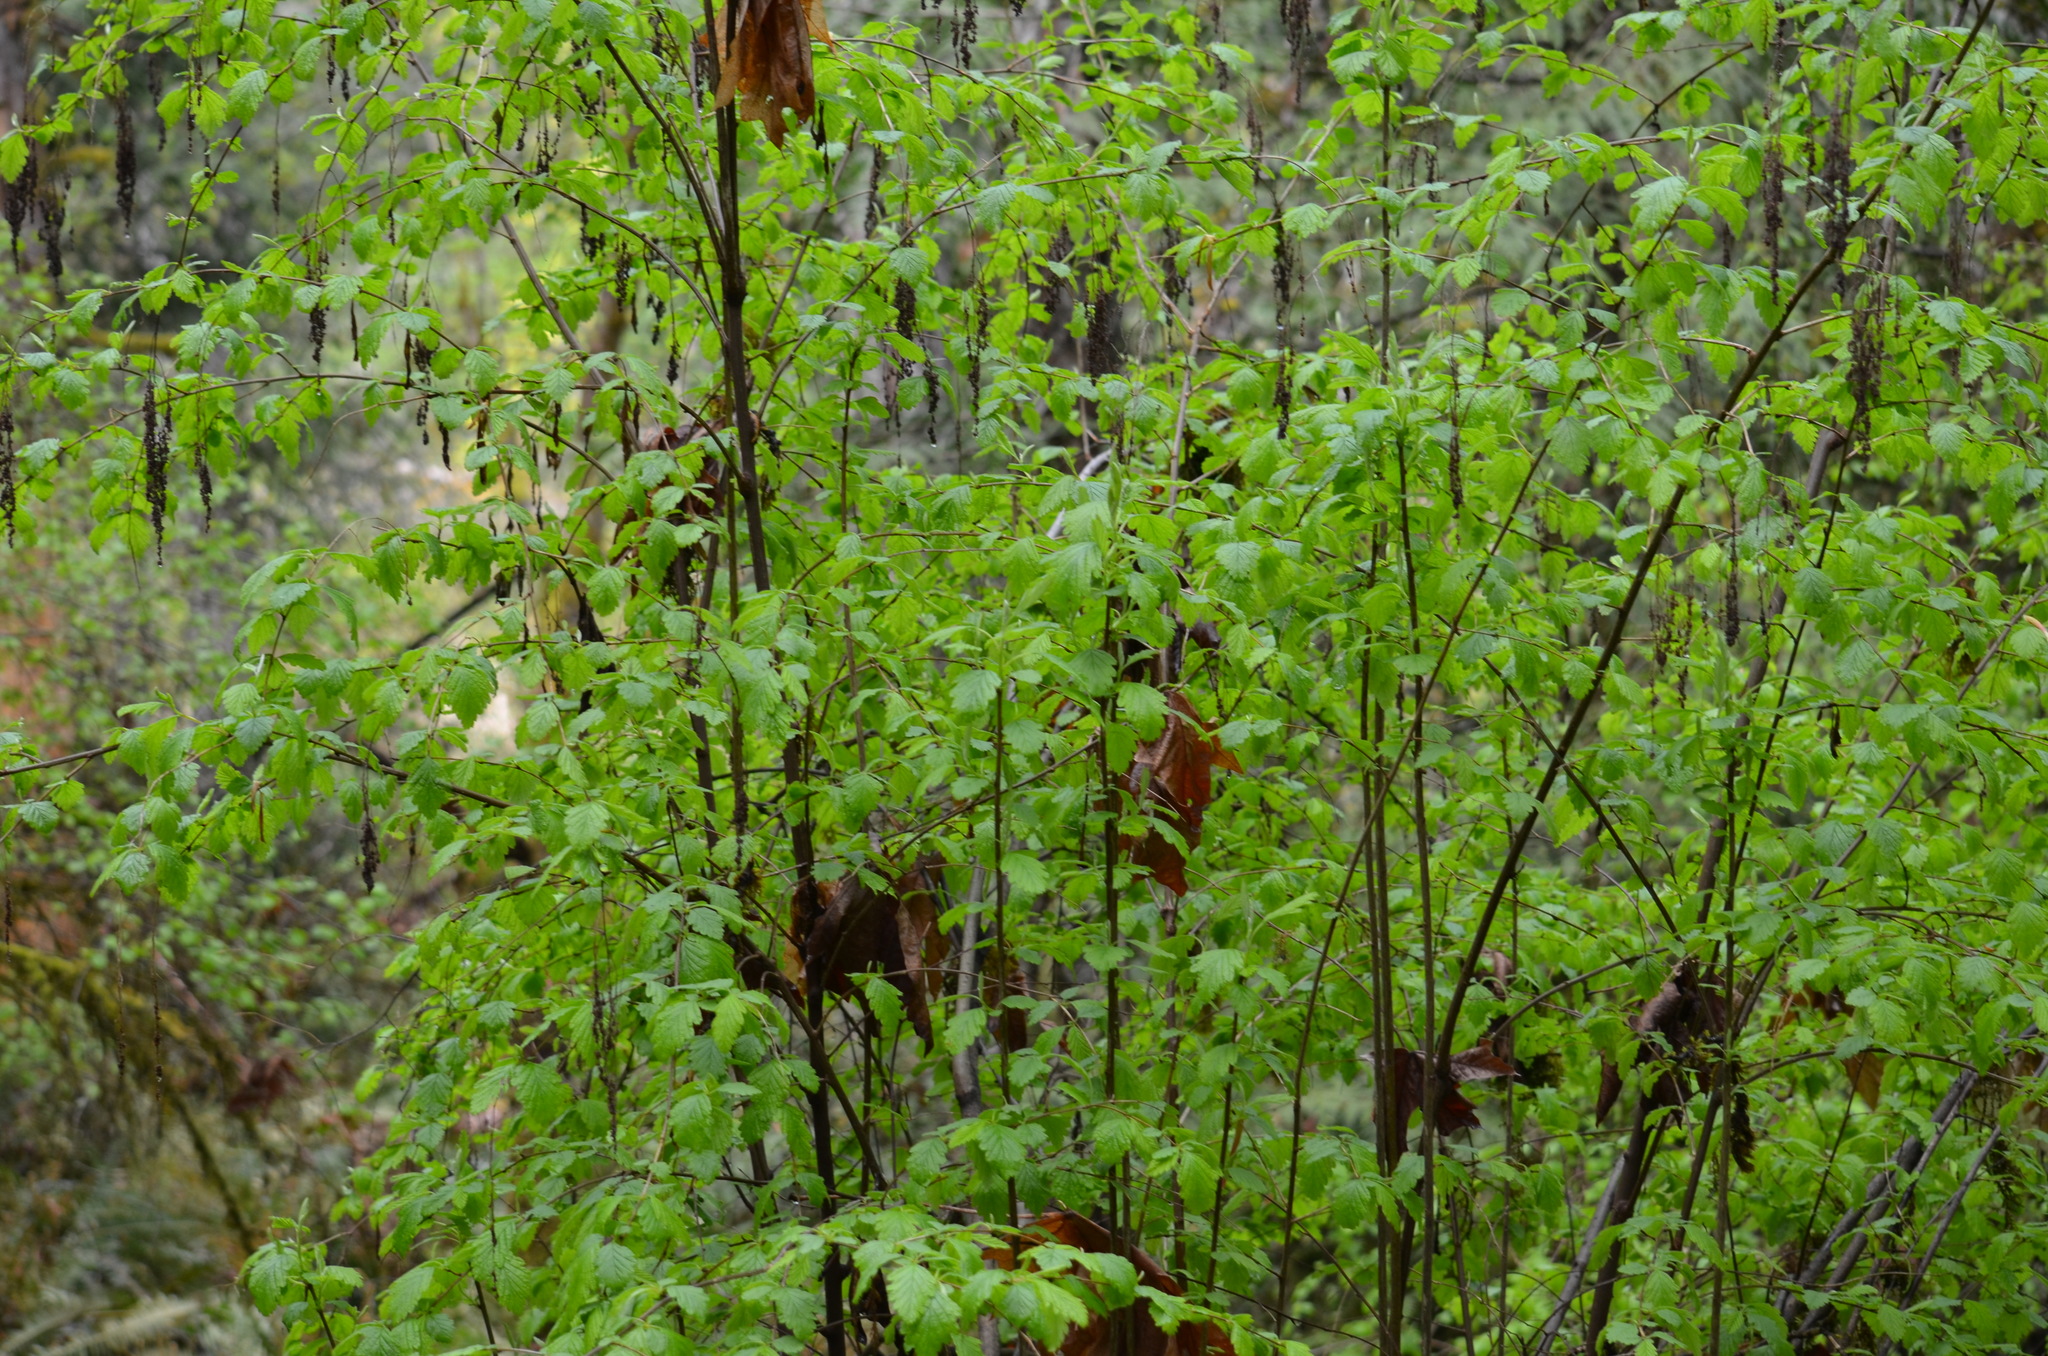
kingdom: Plantae
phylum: Tracheophyta
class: Magnoliopsida
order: Rosales
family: Rosaceae
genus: Holodiscus
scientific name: Holodiscus discolor
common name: Oceanspray
